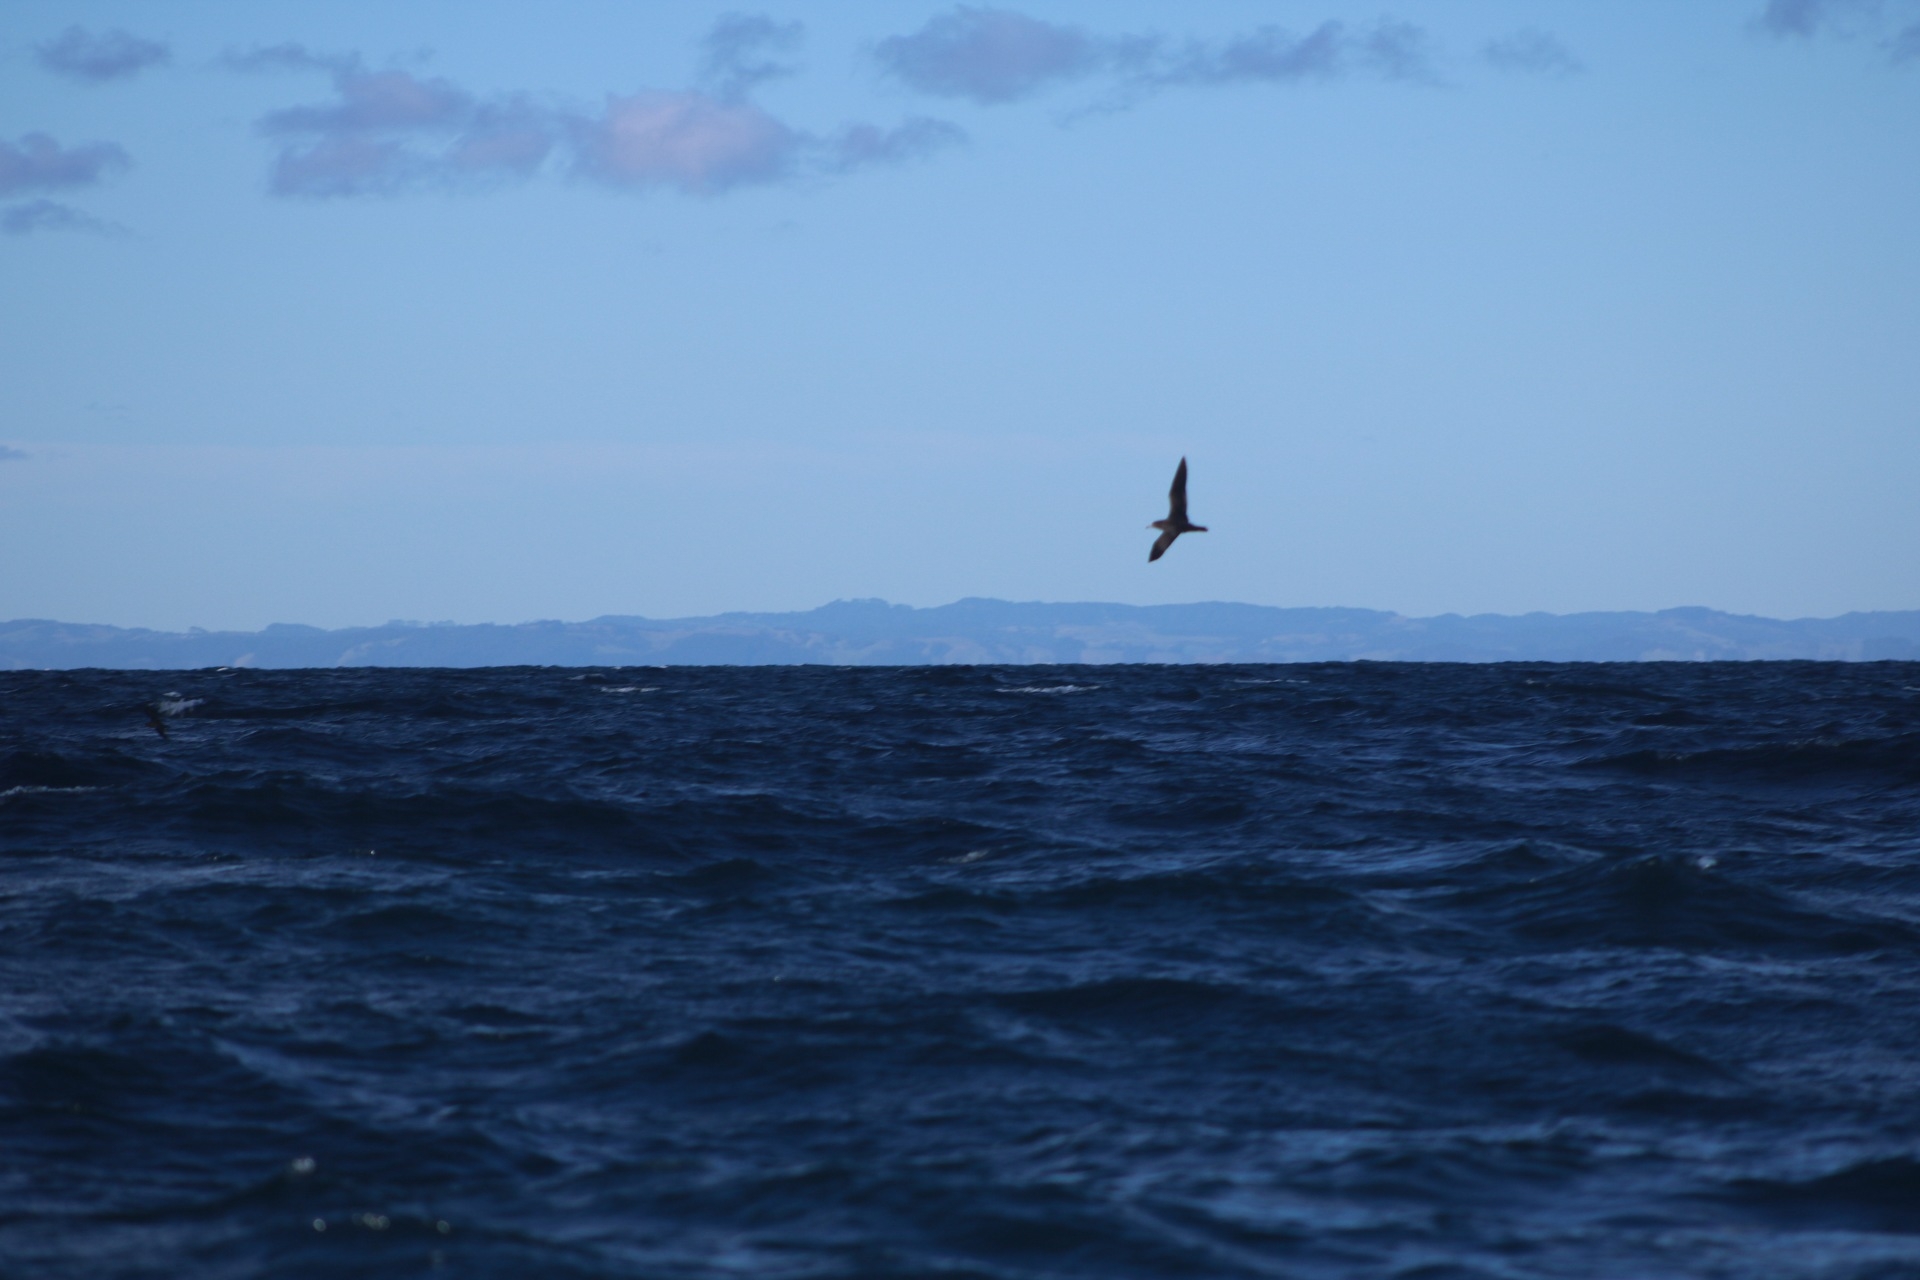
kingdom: Animalia
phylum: Chordata
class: Aves
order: Procellariiformes
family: Procellariidae
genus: Puffinus
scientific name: Puffinus carneipes
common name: Flesh-footed shearwater
